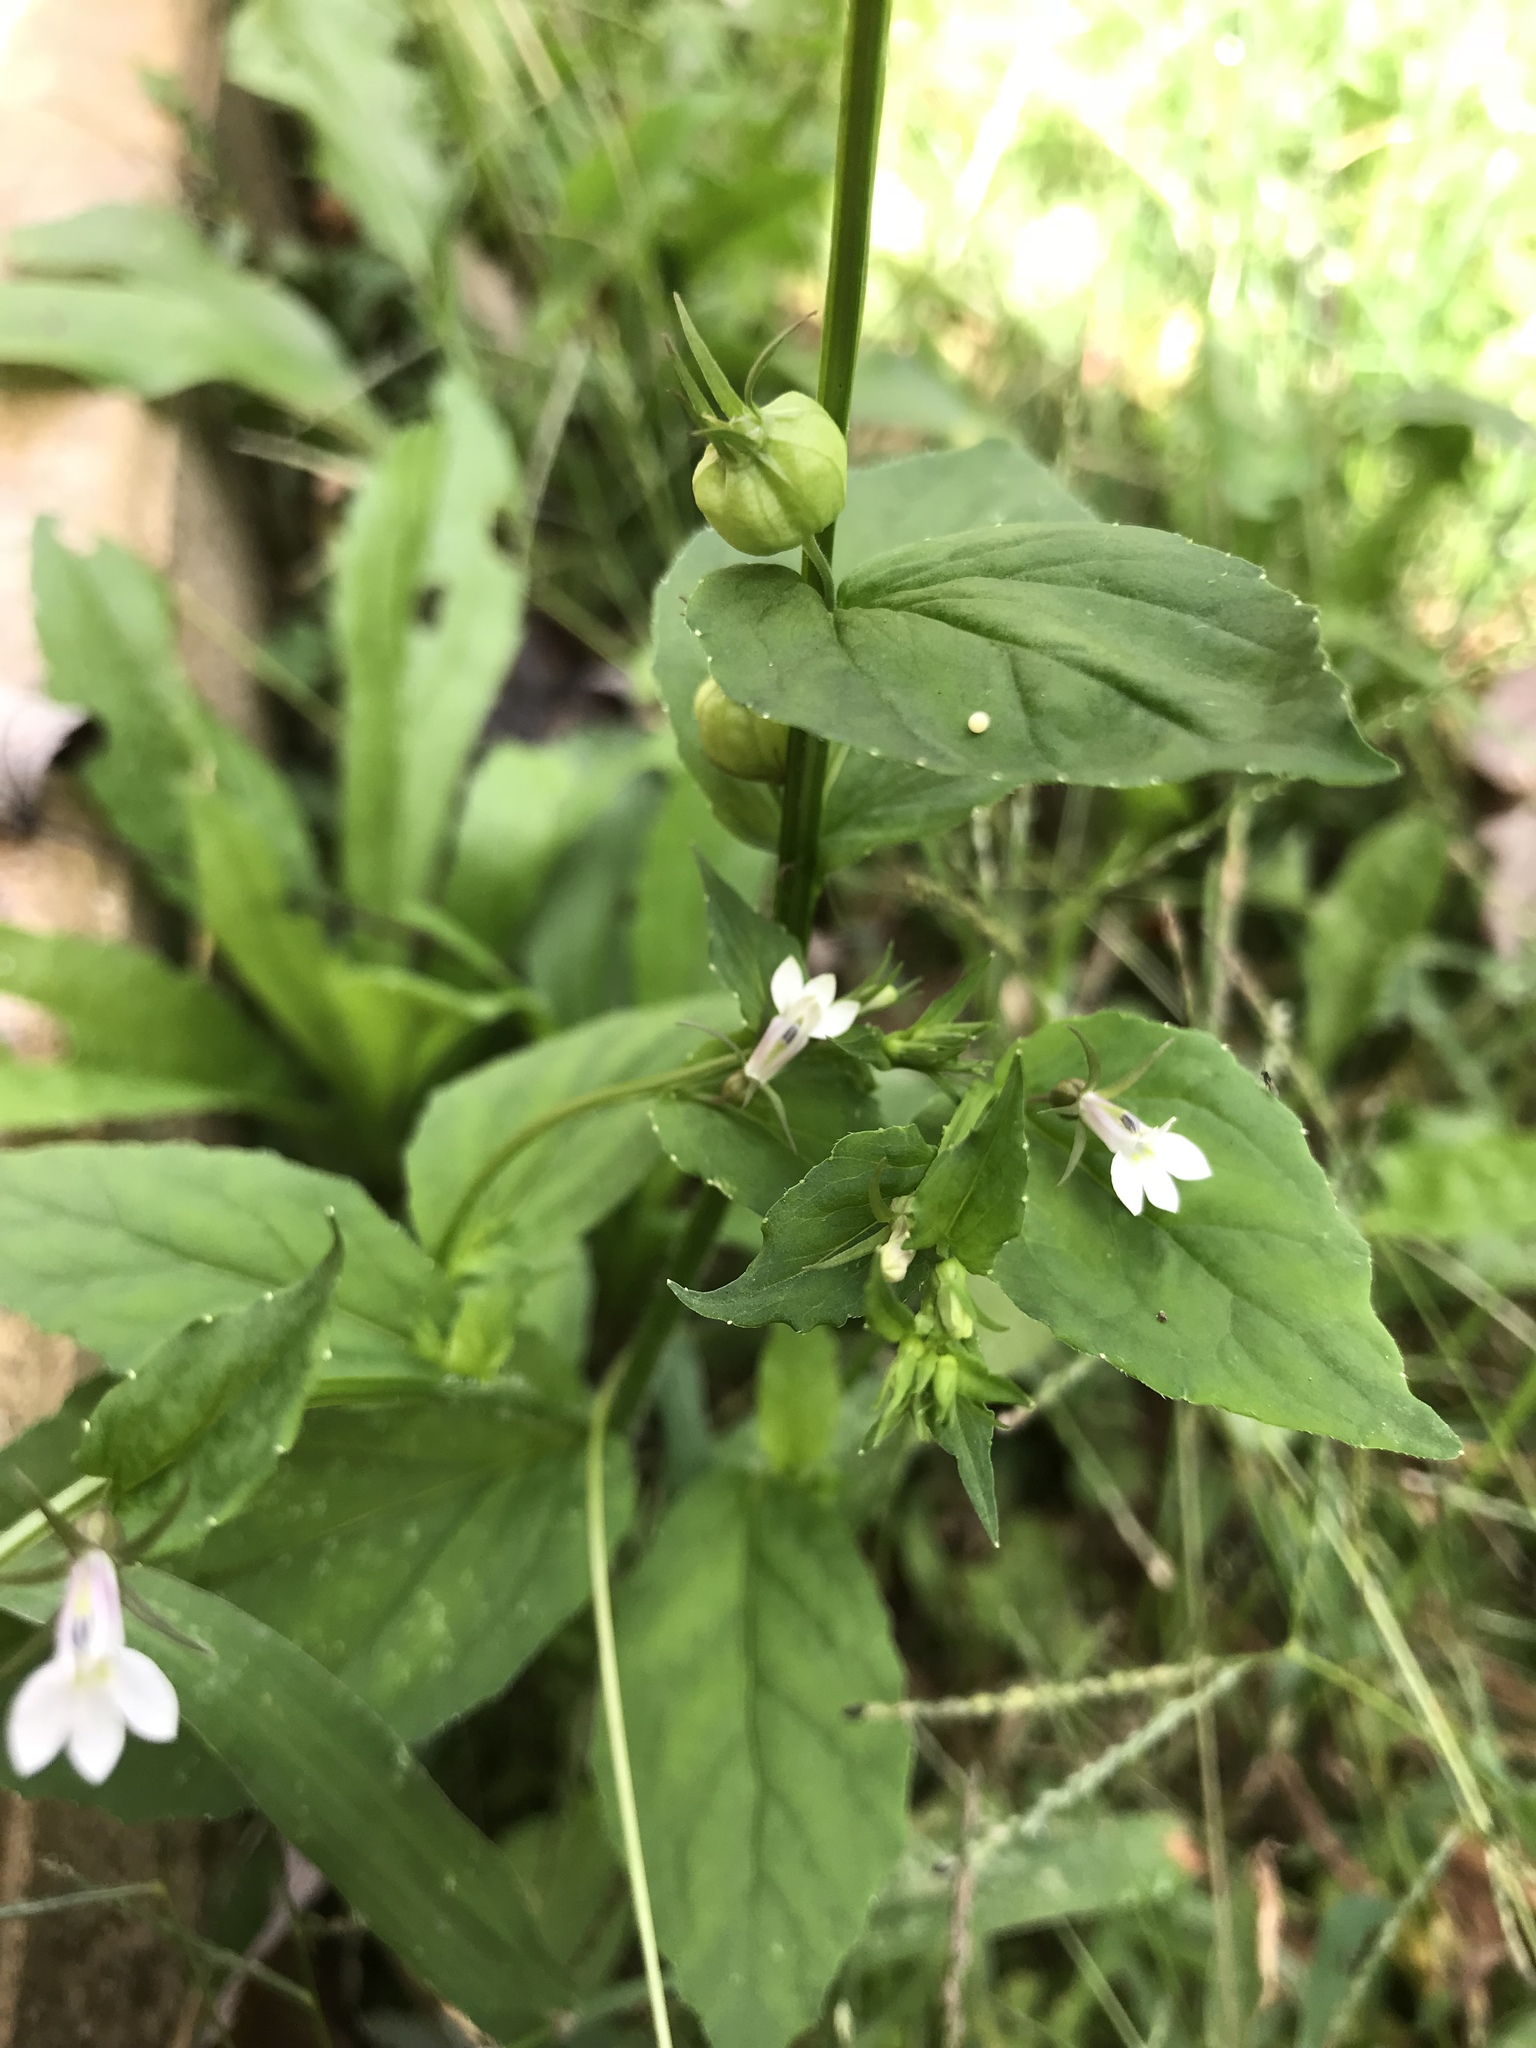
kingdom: Plantae
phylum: Tracheophyta
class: Magnoliopsida
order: Asterales
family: Campanulaceae
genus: Lobelia
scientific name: Lobelia inflata
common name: Indian tobacco
